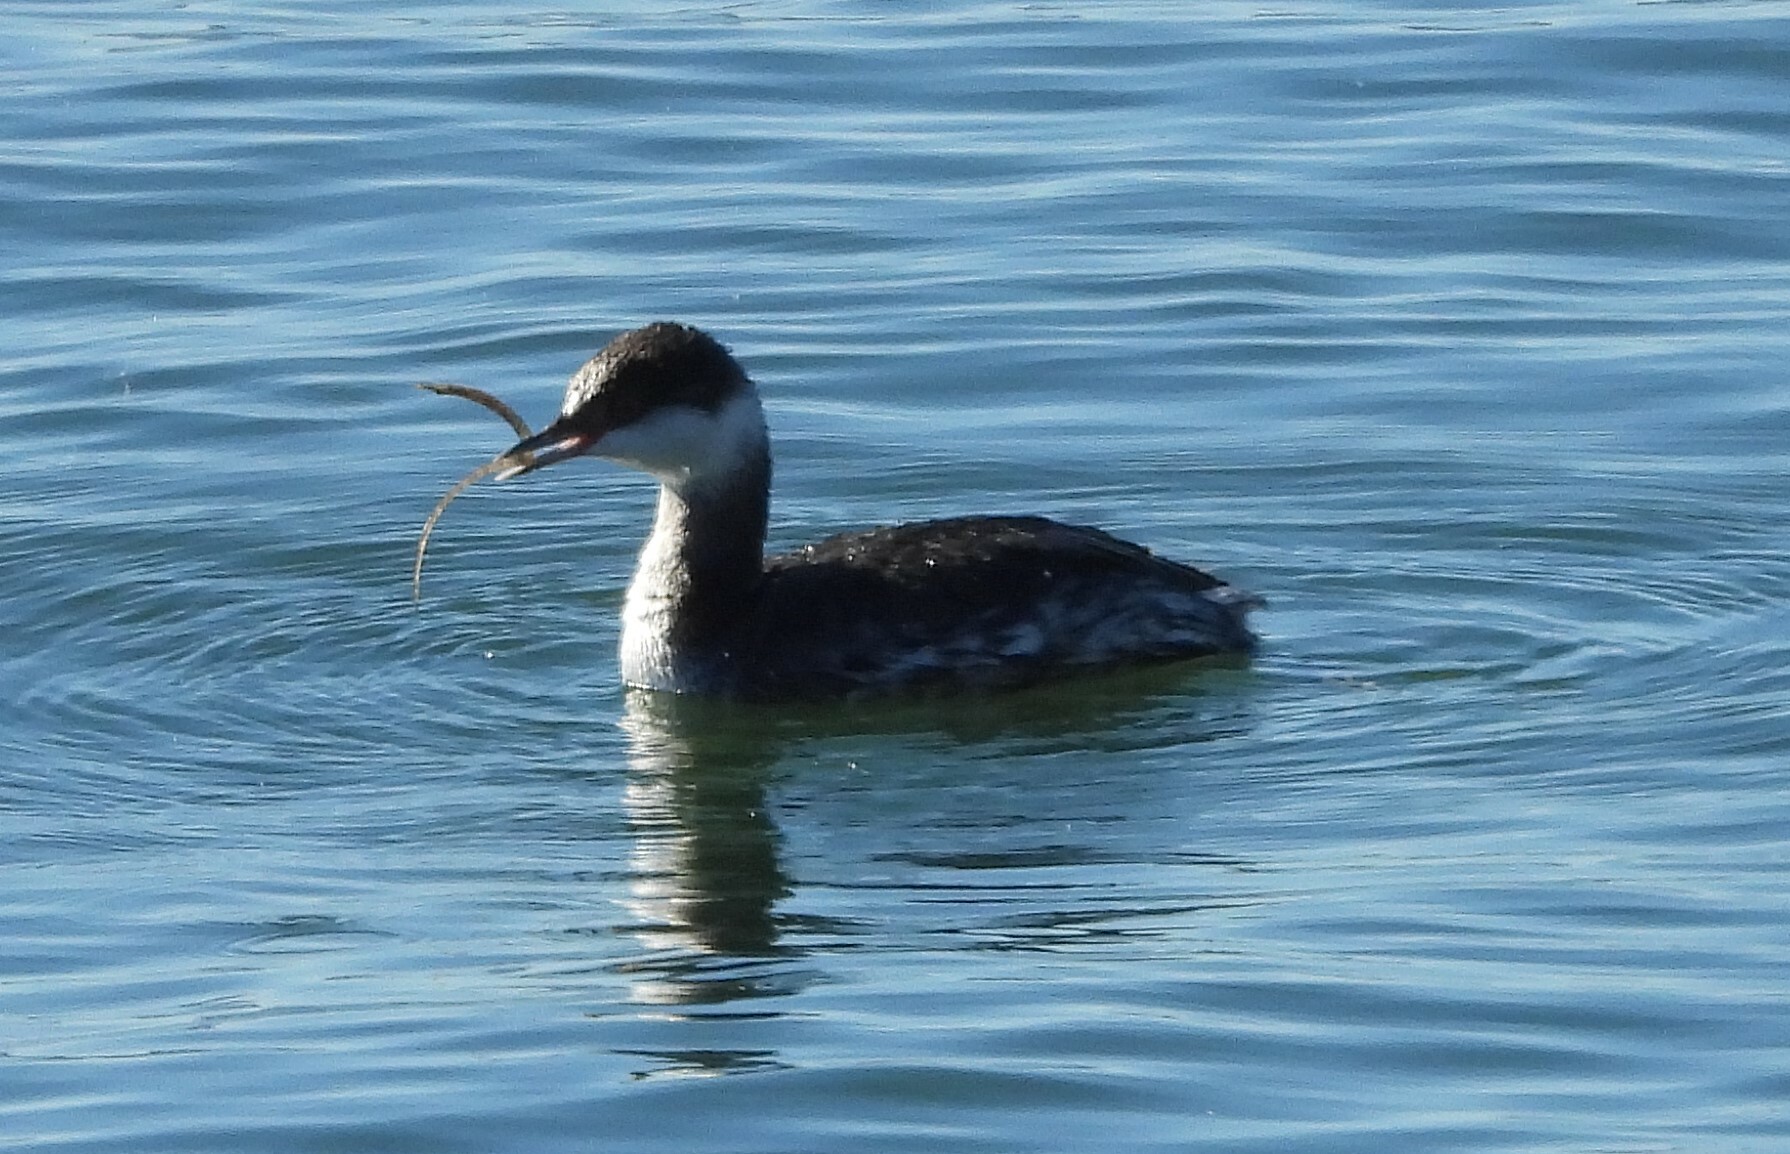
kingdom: Animalia
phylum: Chordata
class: Aves
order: Podicipediformes
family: Podicipedidae
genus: Podiceps
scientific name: Podiceps auritus
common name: Horned grebe
